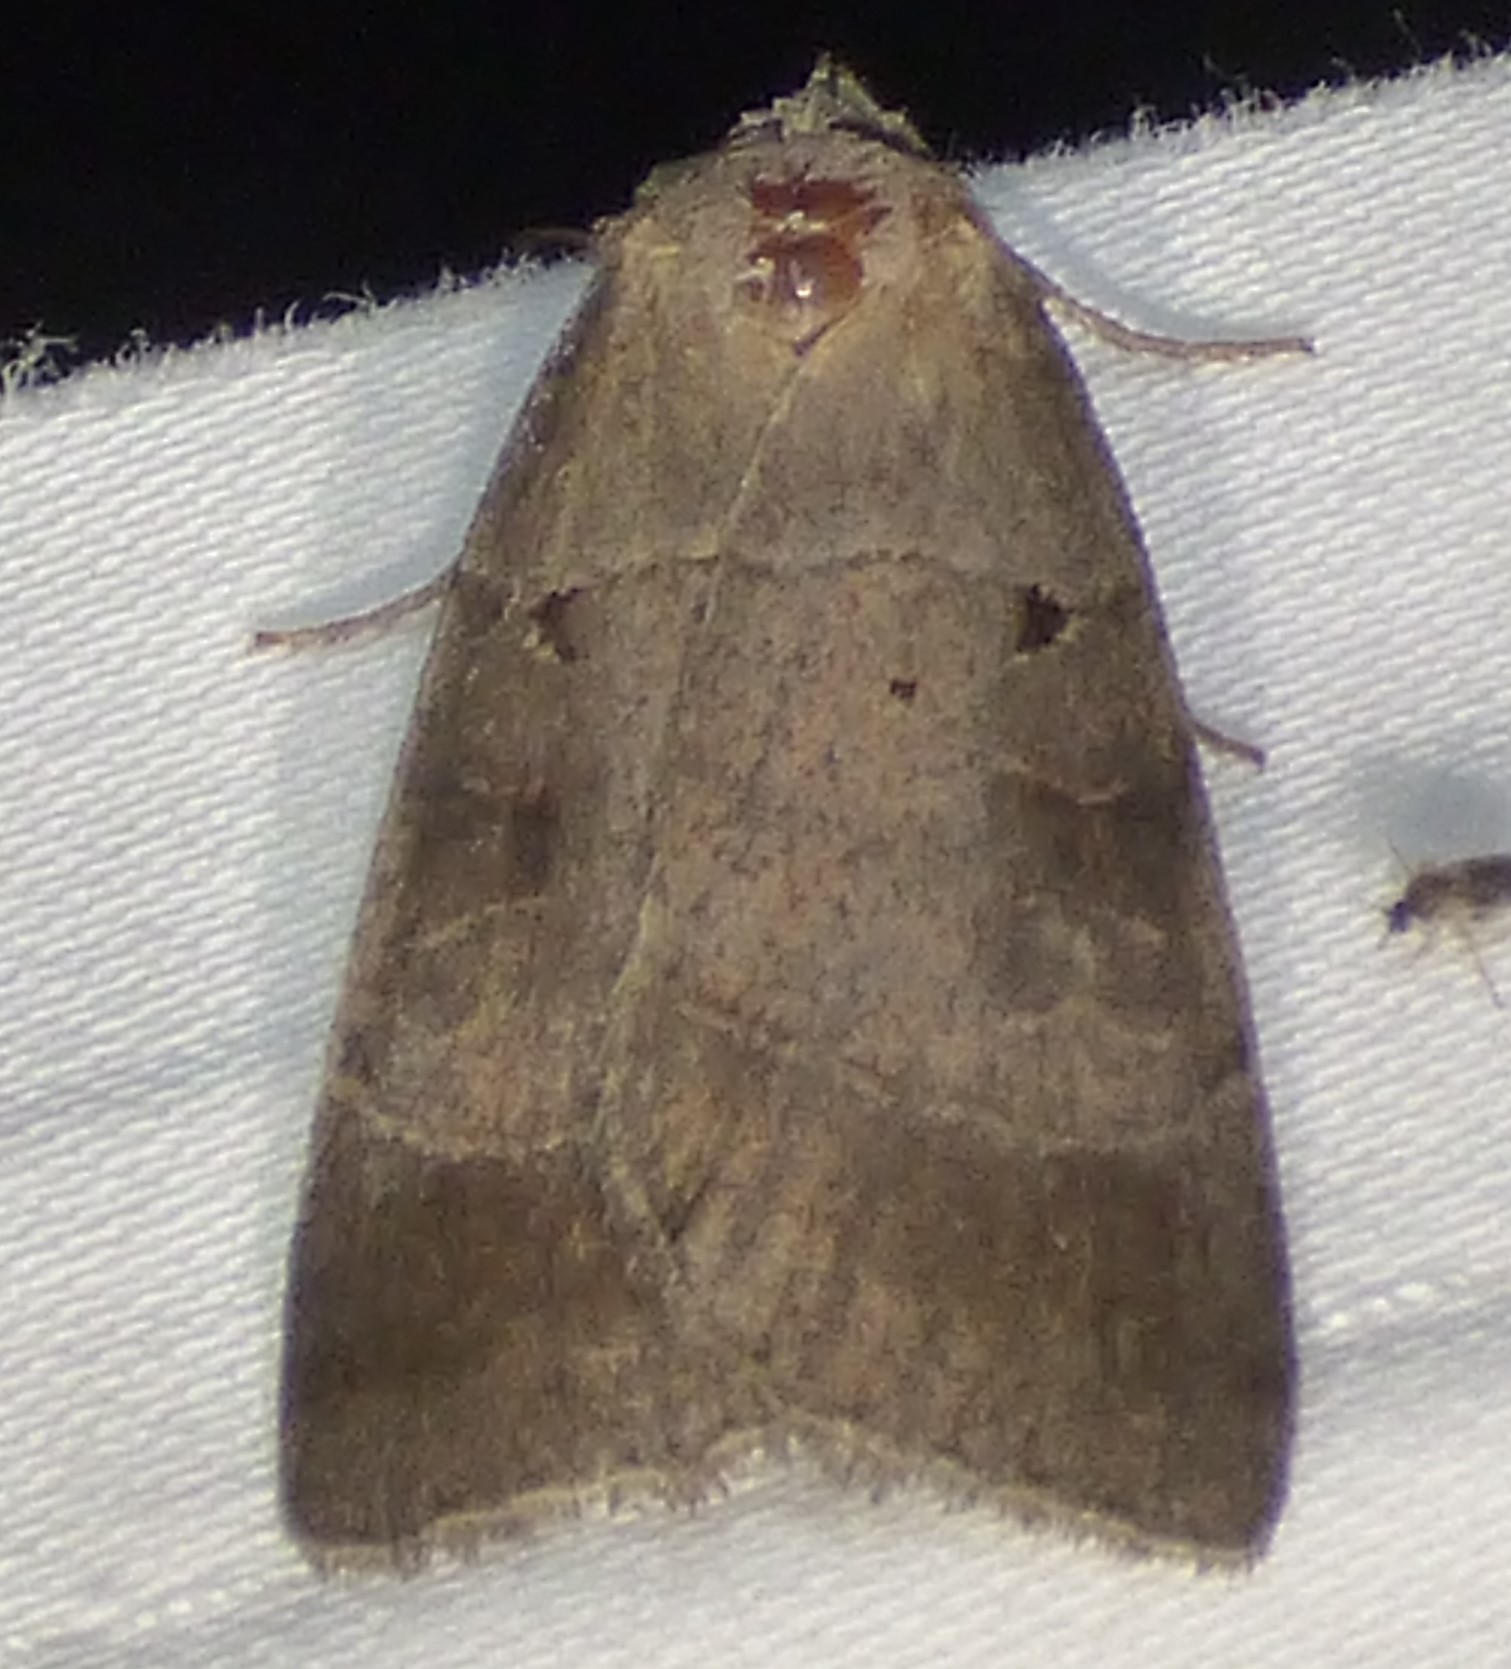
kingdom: Animalia
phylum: Arthropoda
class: Insecta
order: Lepidoptera
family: Noctuidae
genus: Agnorisma
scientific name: Agnorisma badinodis
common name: Pale-banded dart
